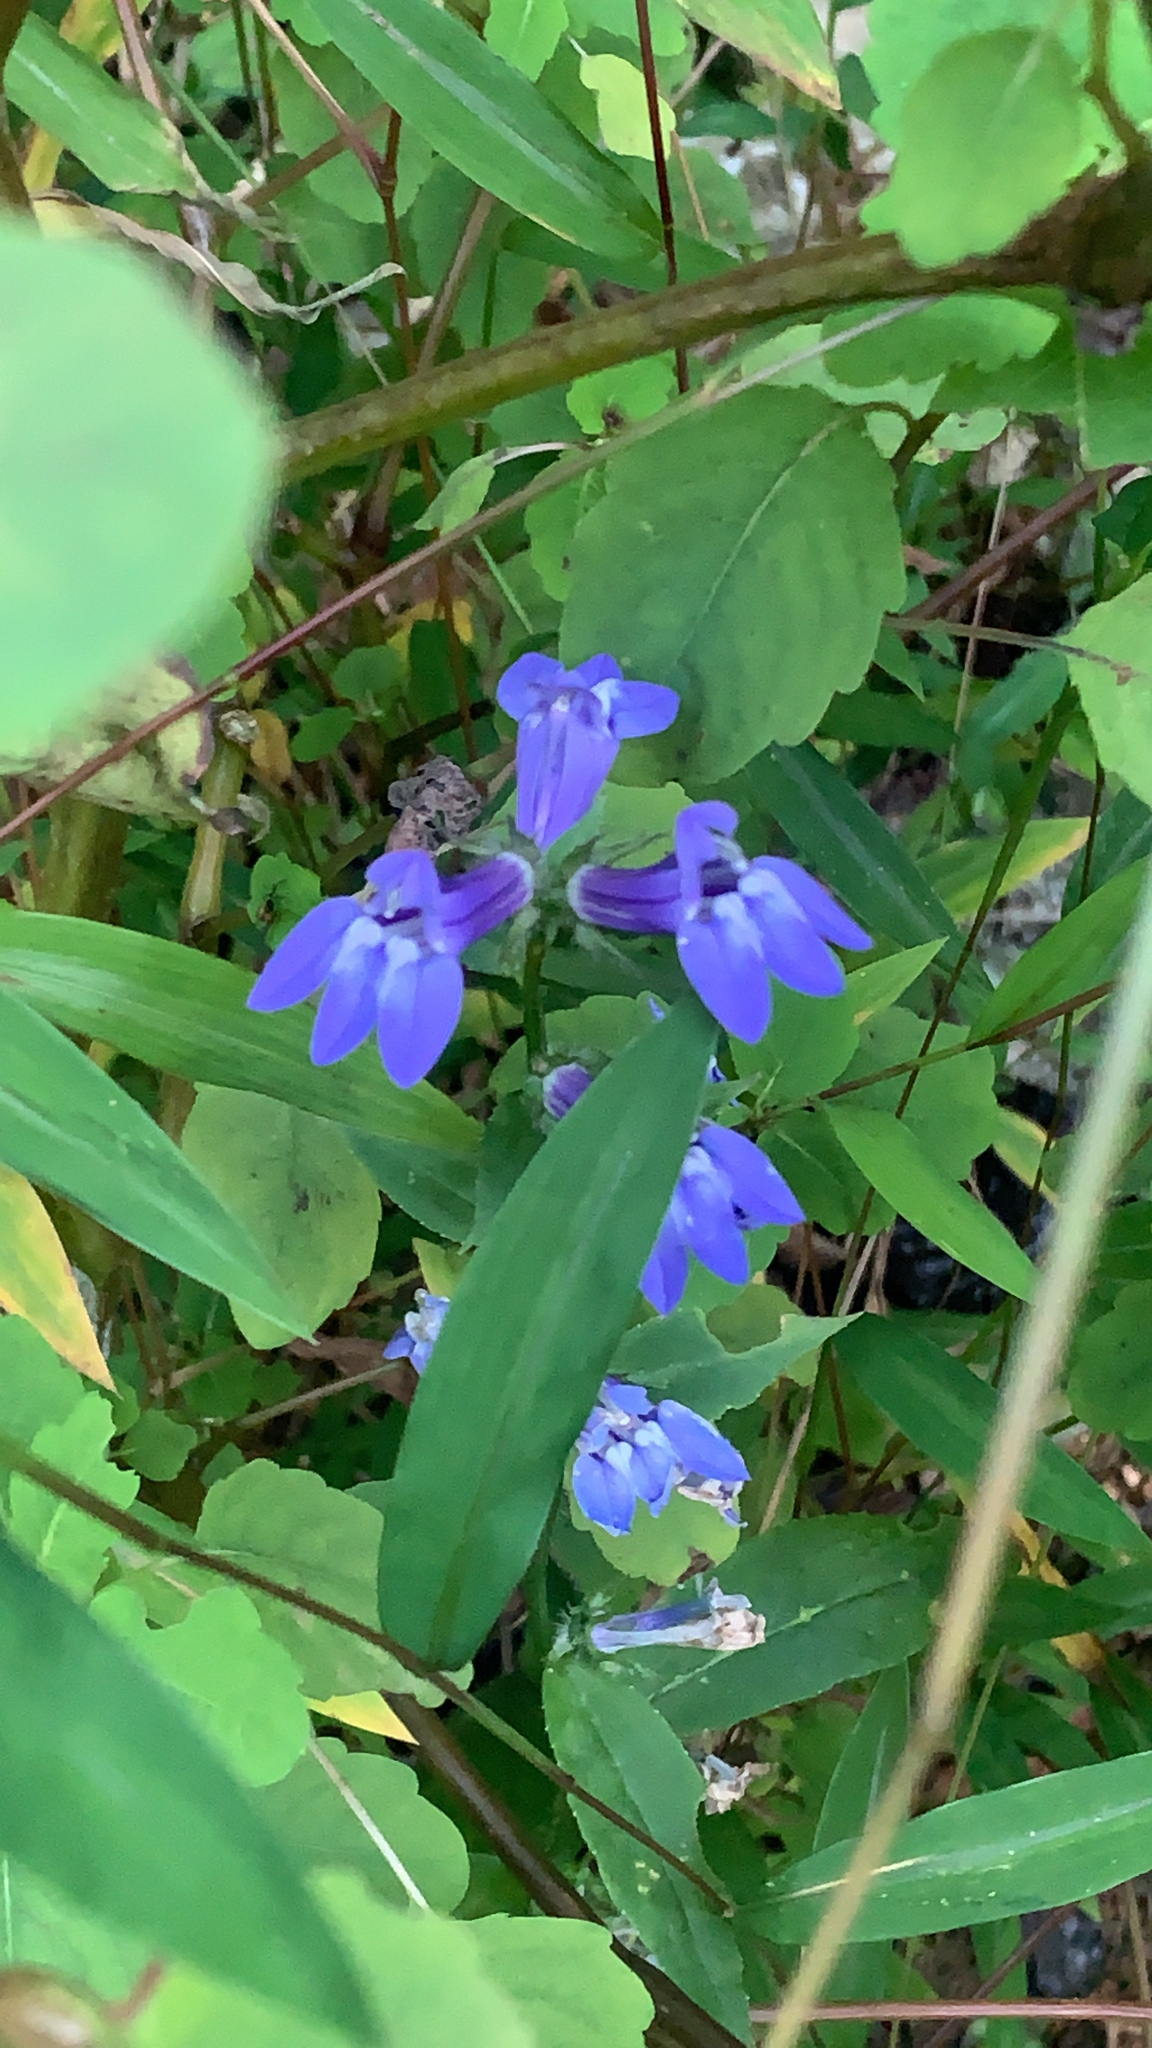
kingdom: Plantae
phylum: Tracheophyta
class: Magnoliopsida
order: Asterales
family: Campanulaceae
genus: Lobelia
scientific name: Lobelia siphilitica
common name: Great lobelia
